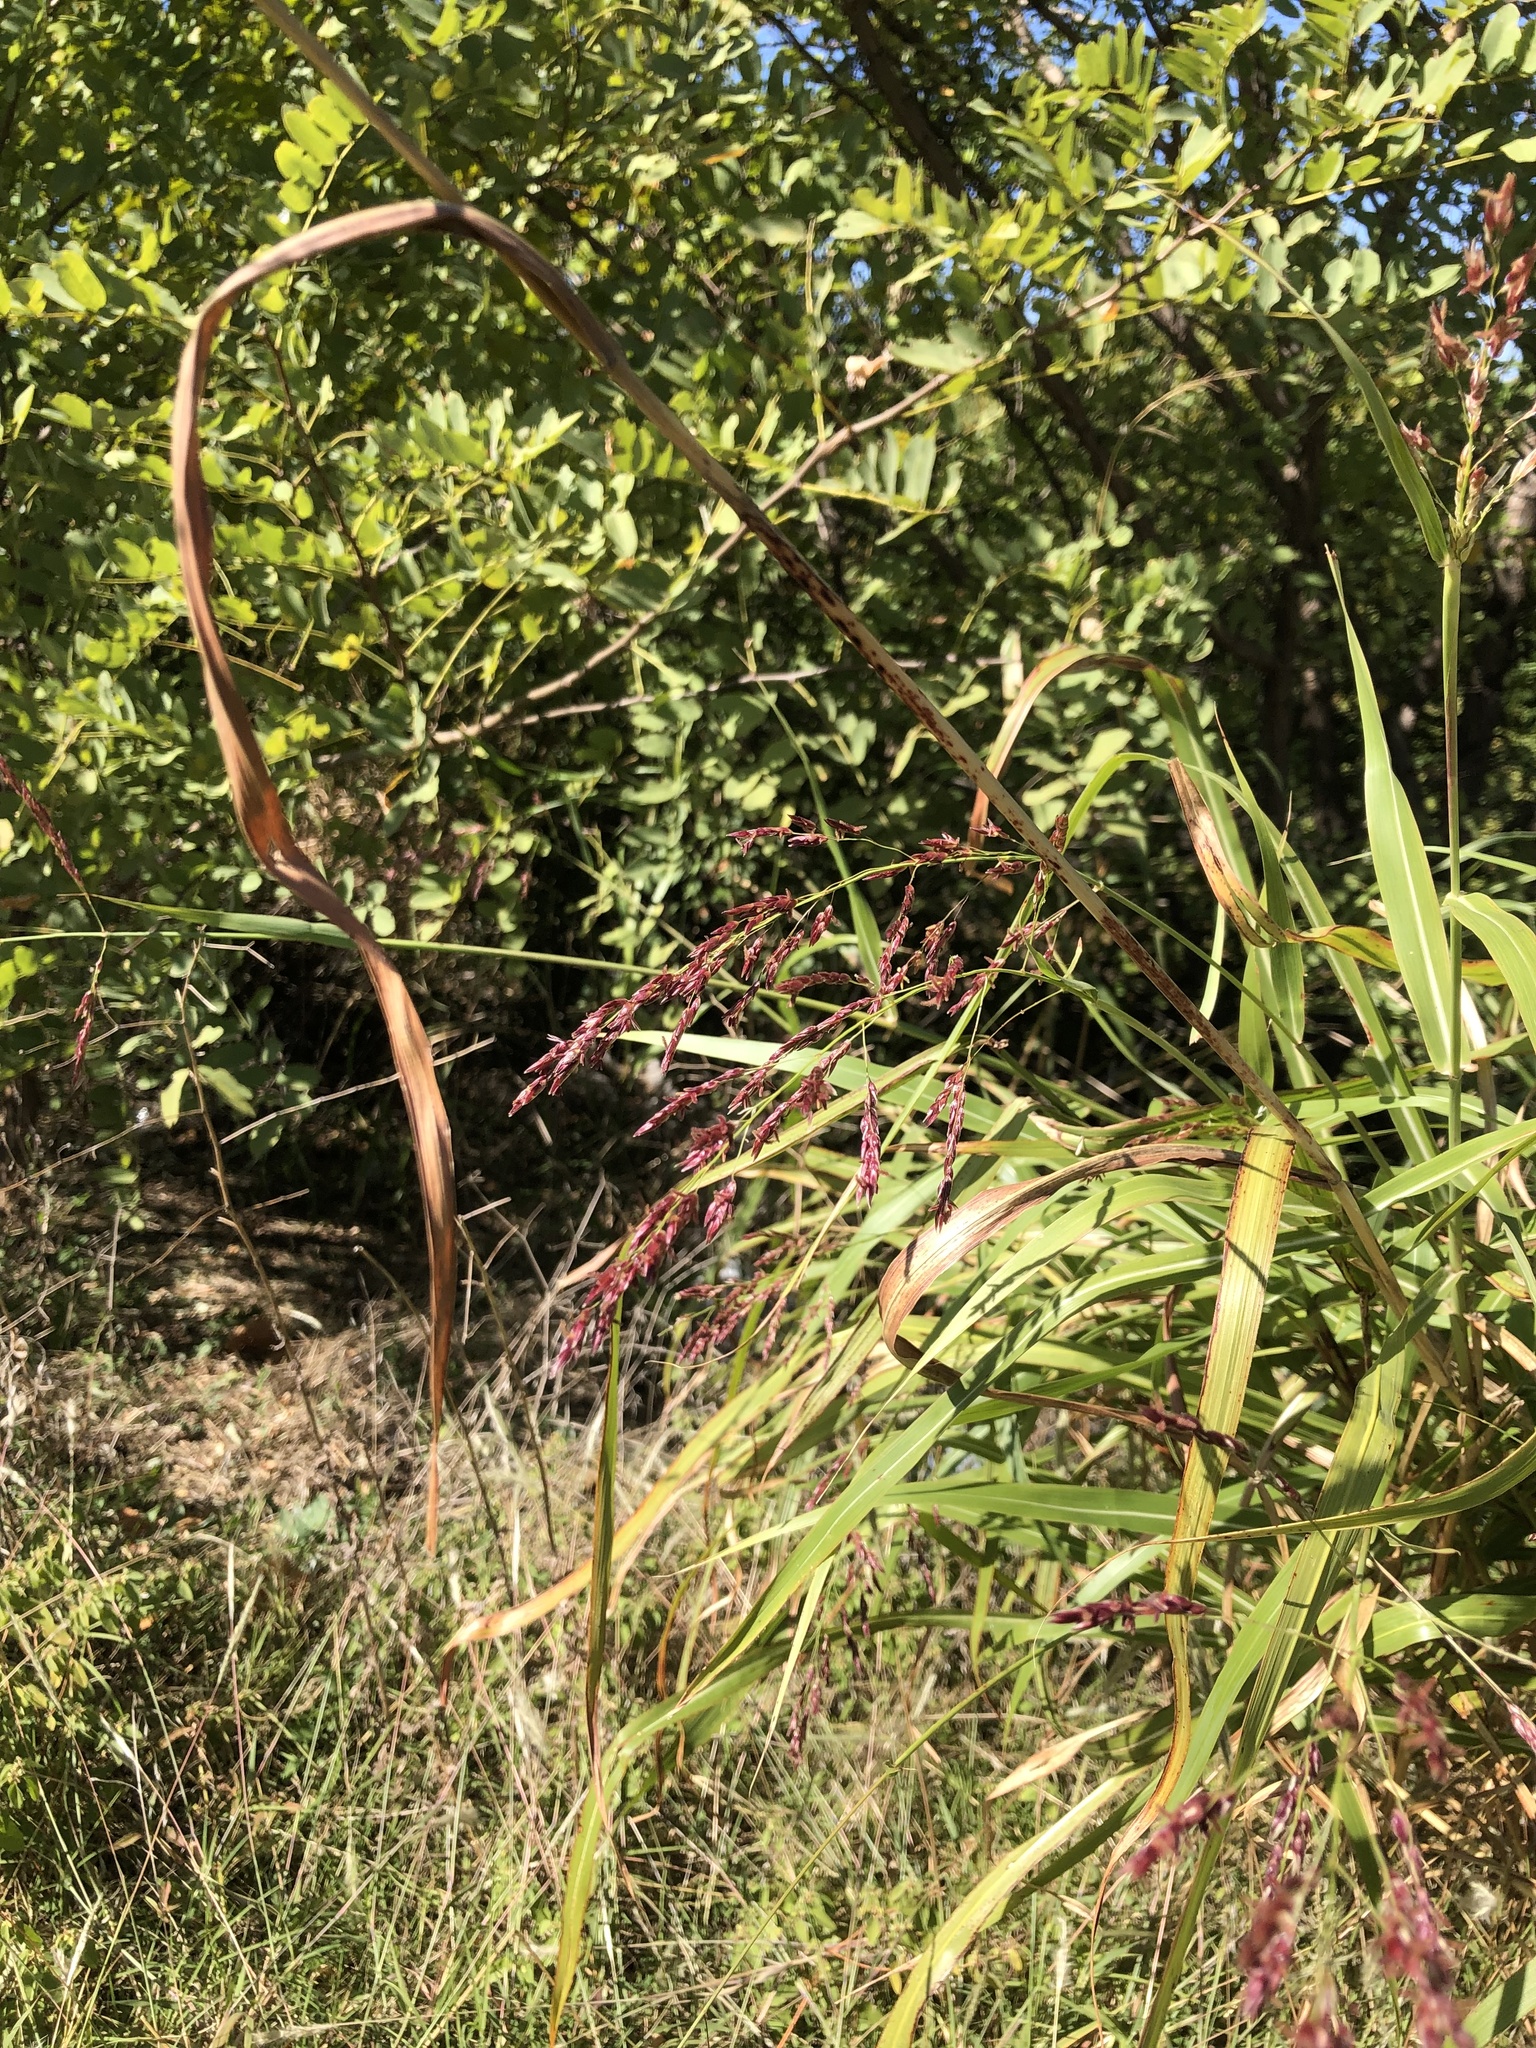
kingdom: Plantae
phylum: Tracheophyta
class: Liliopsida
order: Poales
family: Poaceae
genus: Sorghum
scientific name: Sorghum halepense
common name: Johnson-grass
